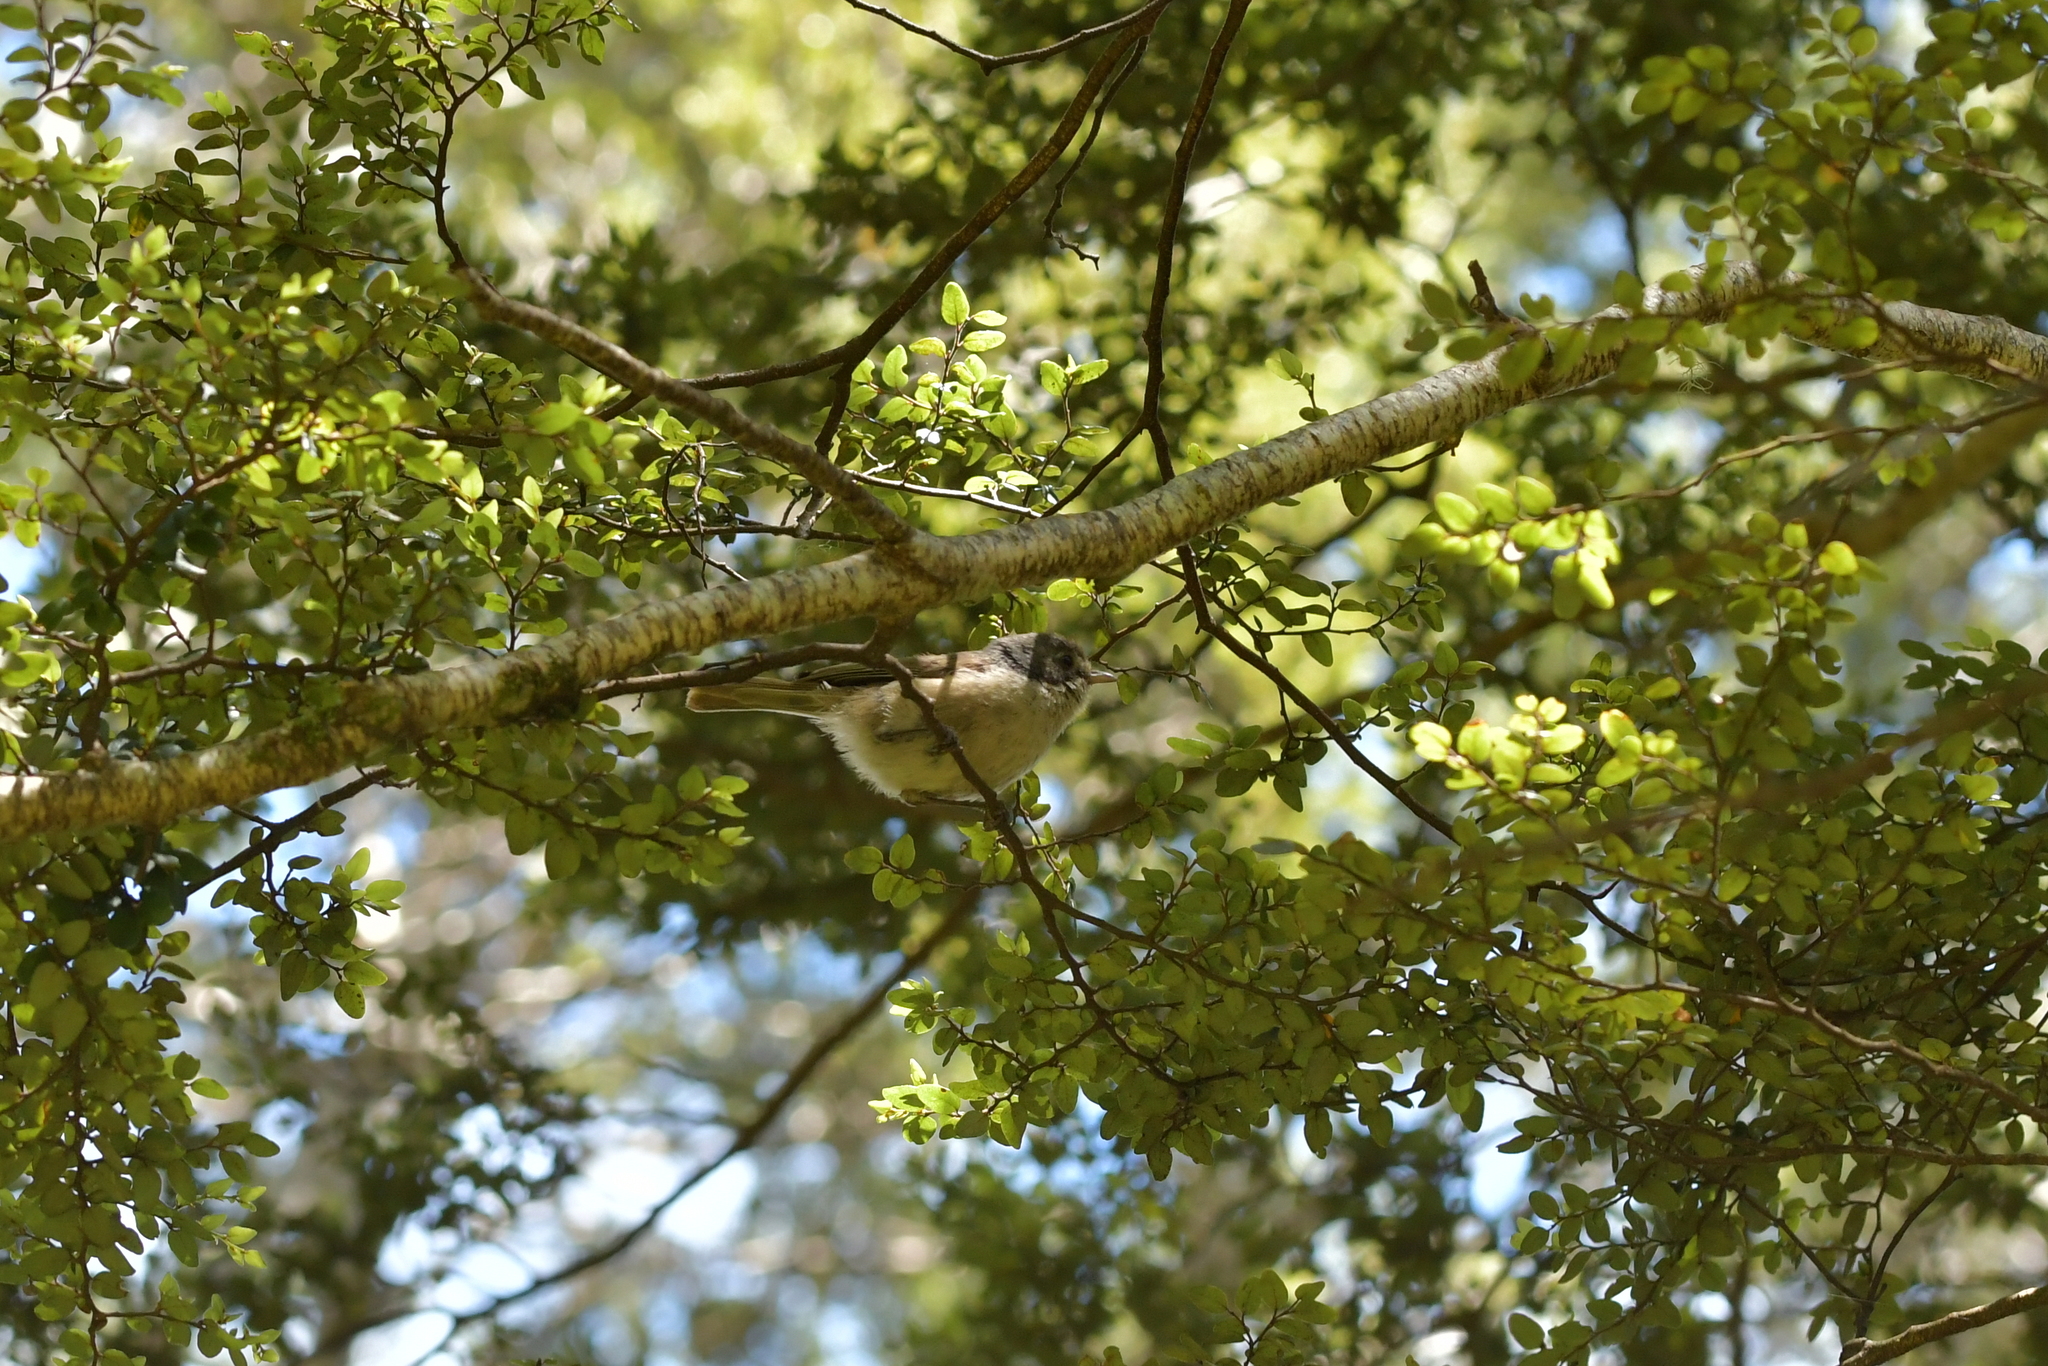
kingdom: Animalia
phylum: Chordata
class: Aves
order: Passeriformes
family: Acanthizidae
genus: Finschia
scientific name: Finschia novaeseelandiae
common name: Pipipi
